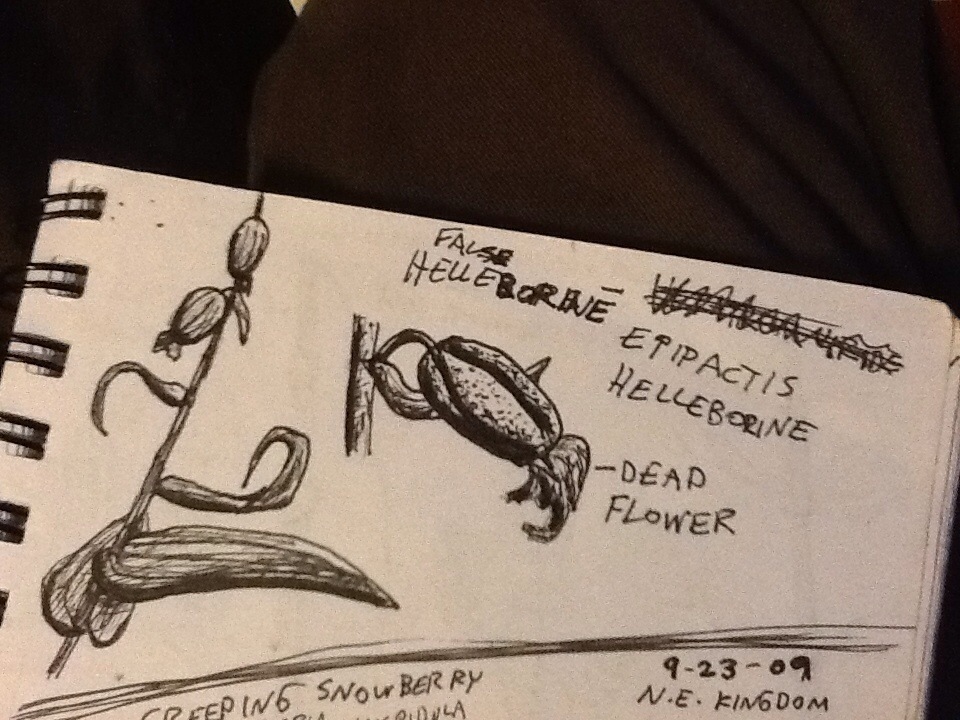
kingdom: Plantae
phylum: Tracheophyta
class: Liliopsida
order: Asparagales
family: Orchidaceae
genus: Epipactis
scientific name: Epipactis helleborine
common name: Broad-leaved helleborine
